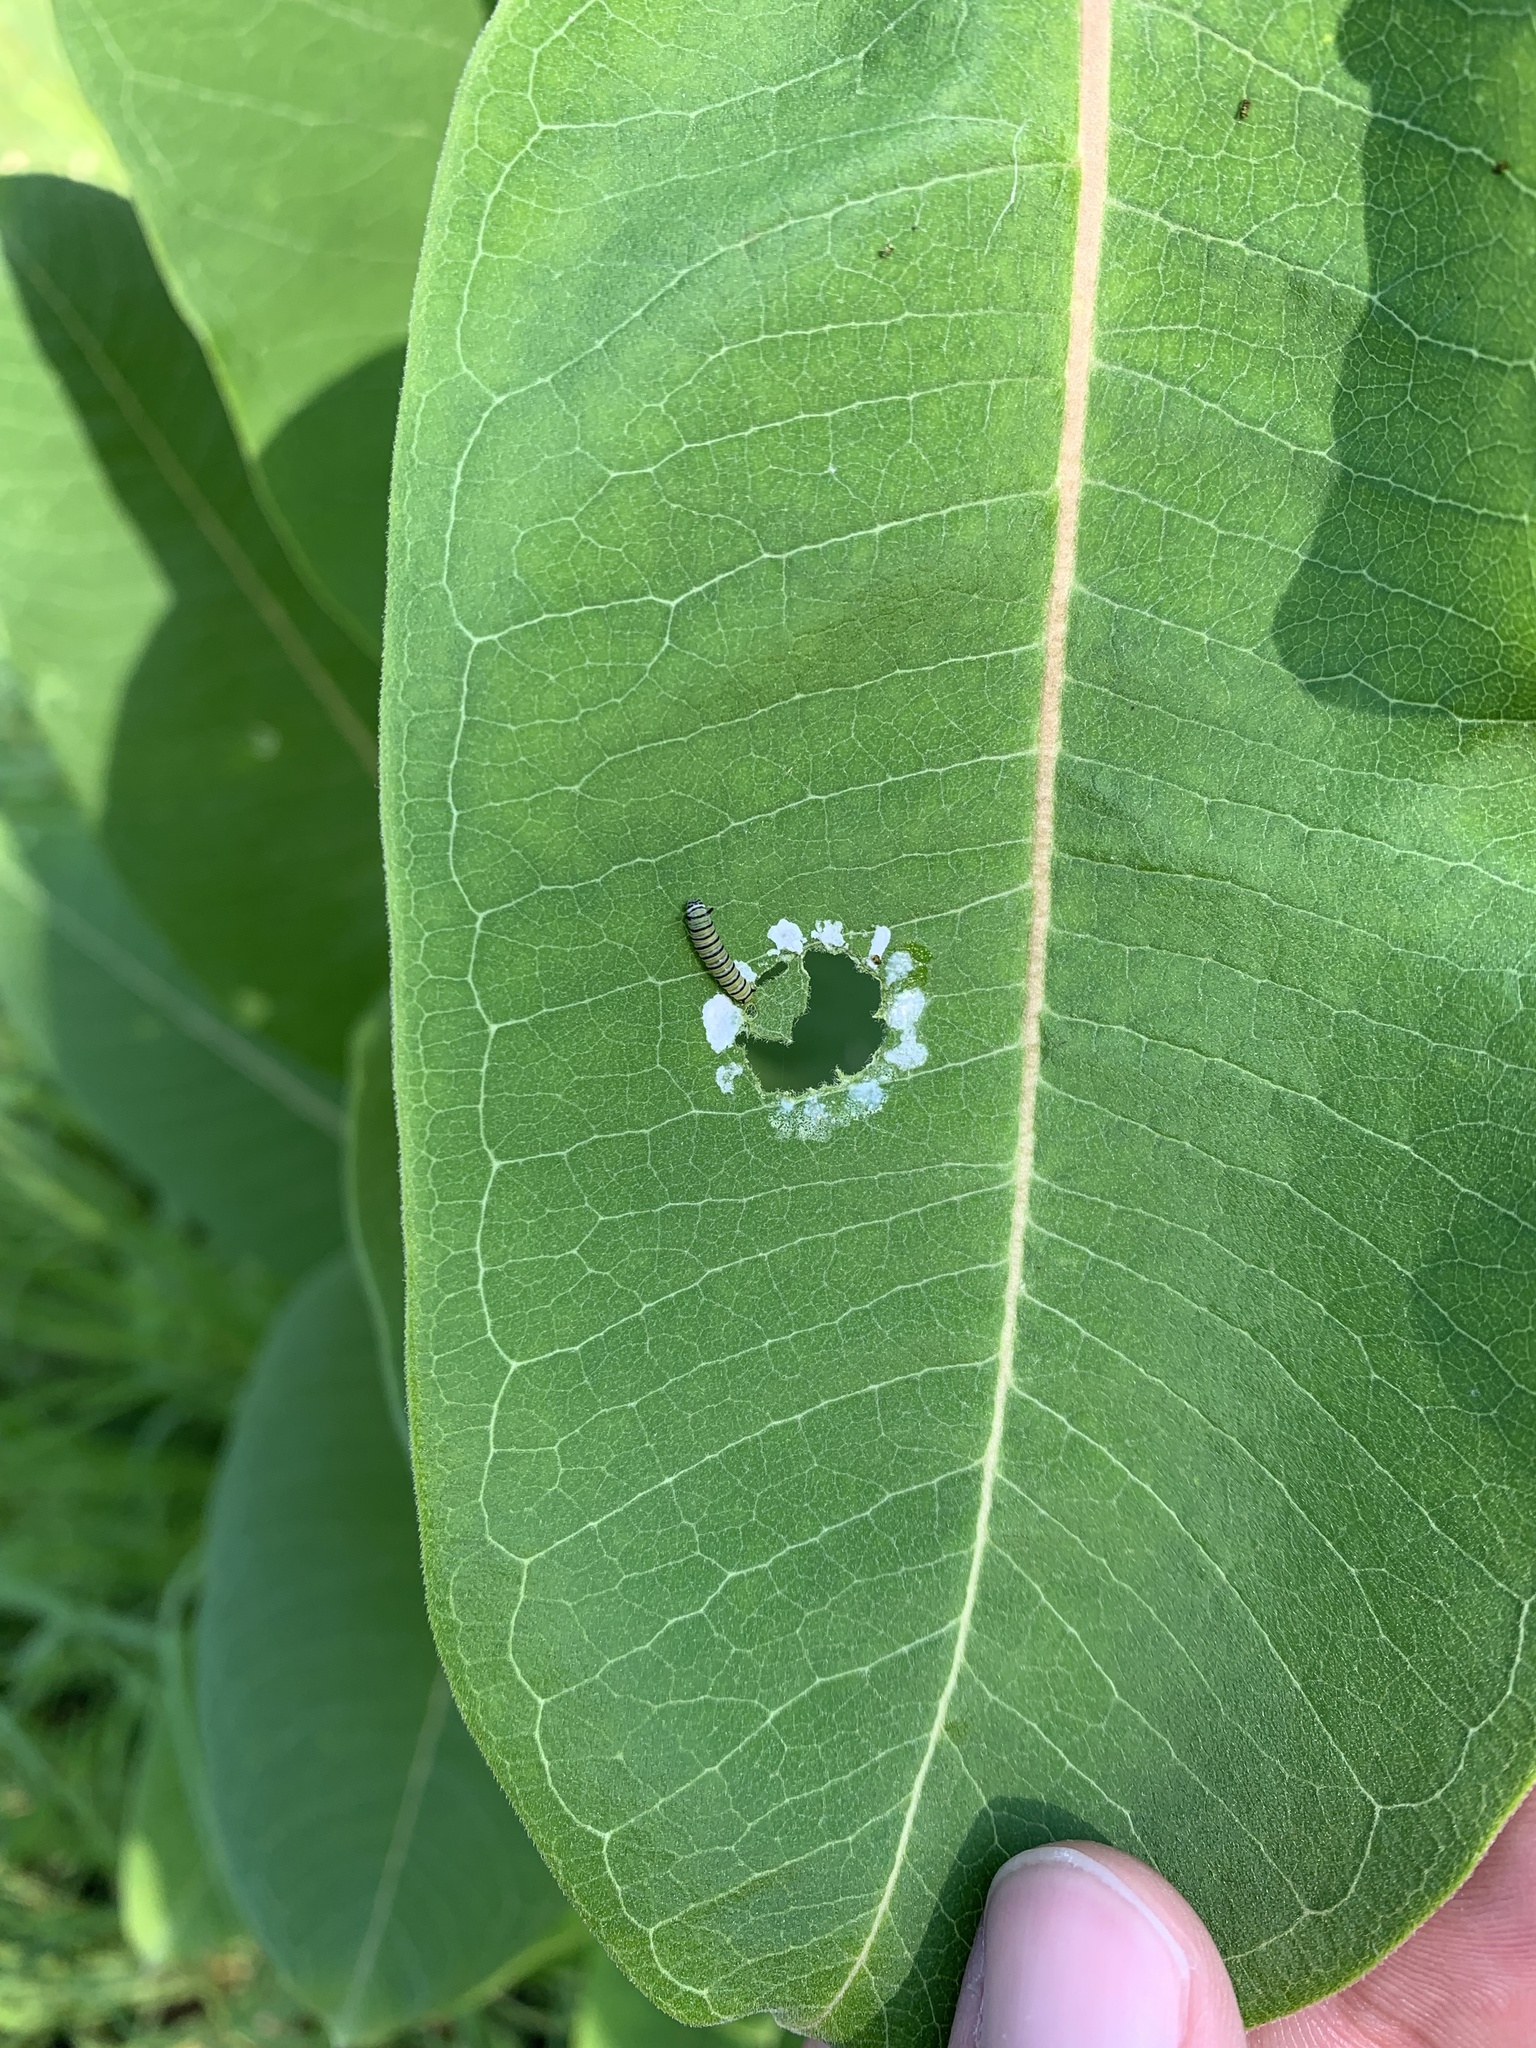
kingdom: Animalia
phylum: Arthropoda
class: Insecta
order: Lepidoptera
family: Nymphalidae
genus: Danaus
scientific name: Danaus plexippus
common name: Monarch
